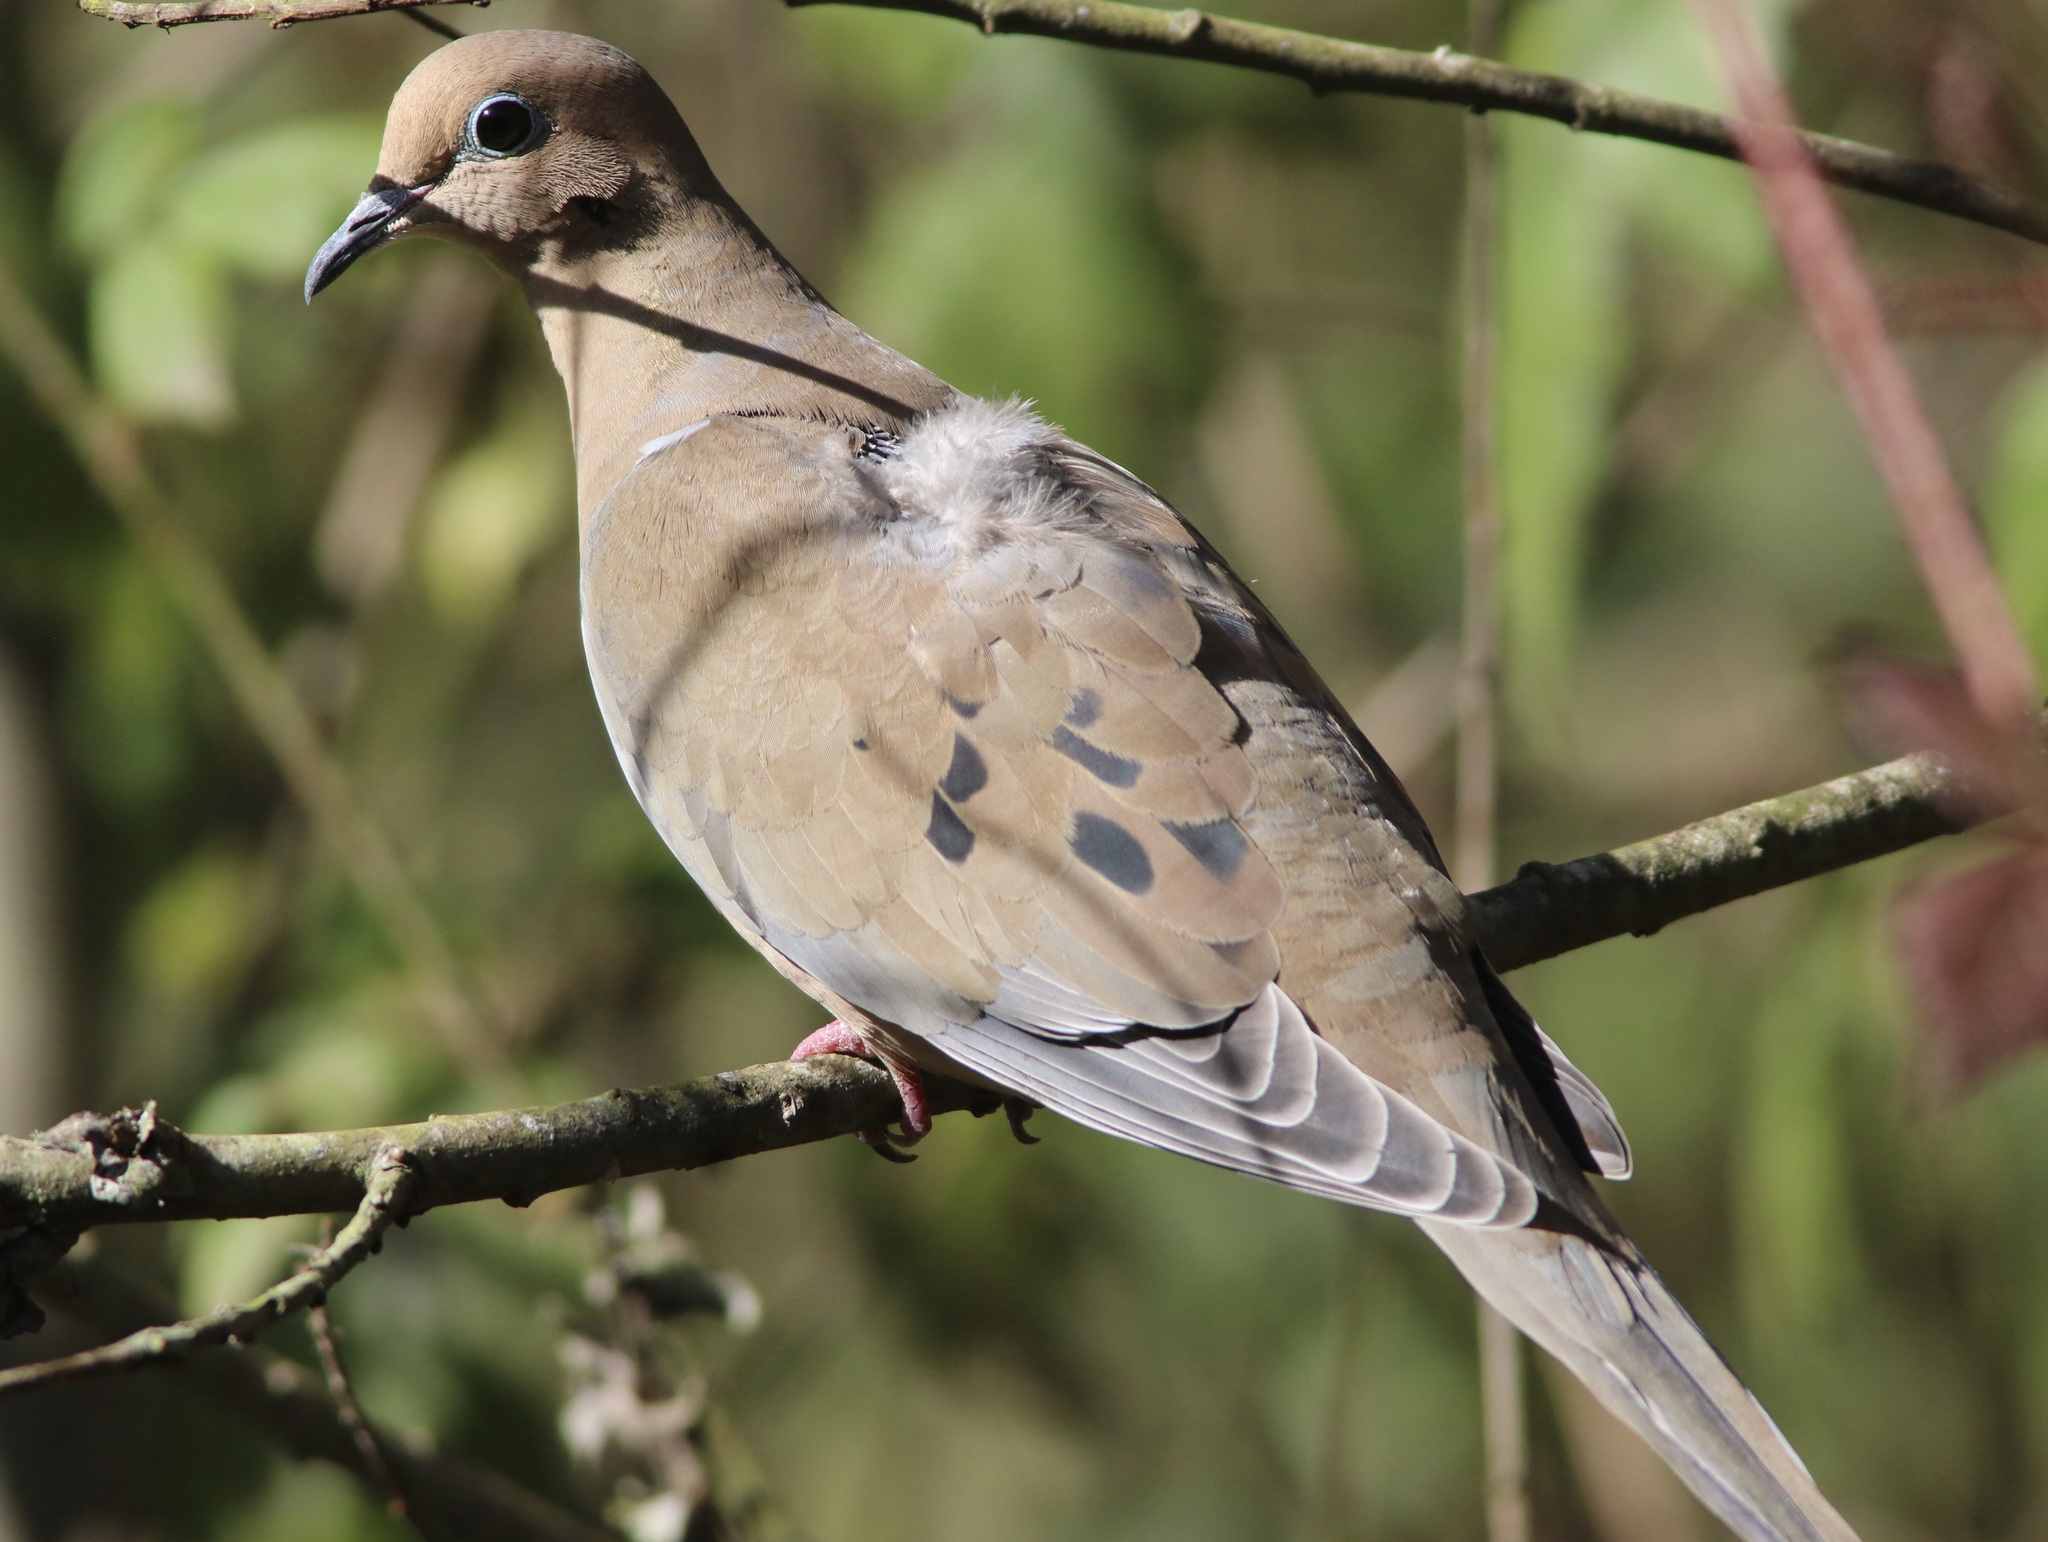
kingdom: Animalia
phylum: Chordata
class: Aves
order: Columbiformes
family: Columbidae
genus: Zenaida
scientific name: Zenaida macroura
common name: Mourning dove
